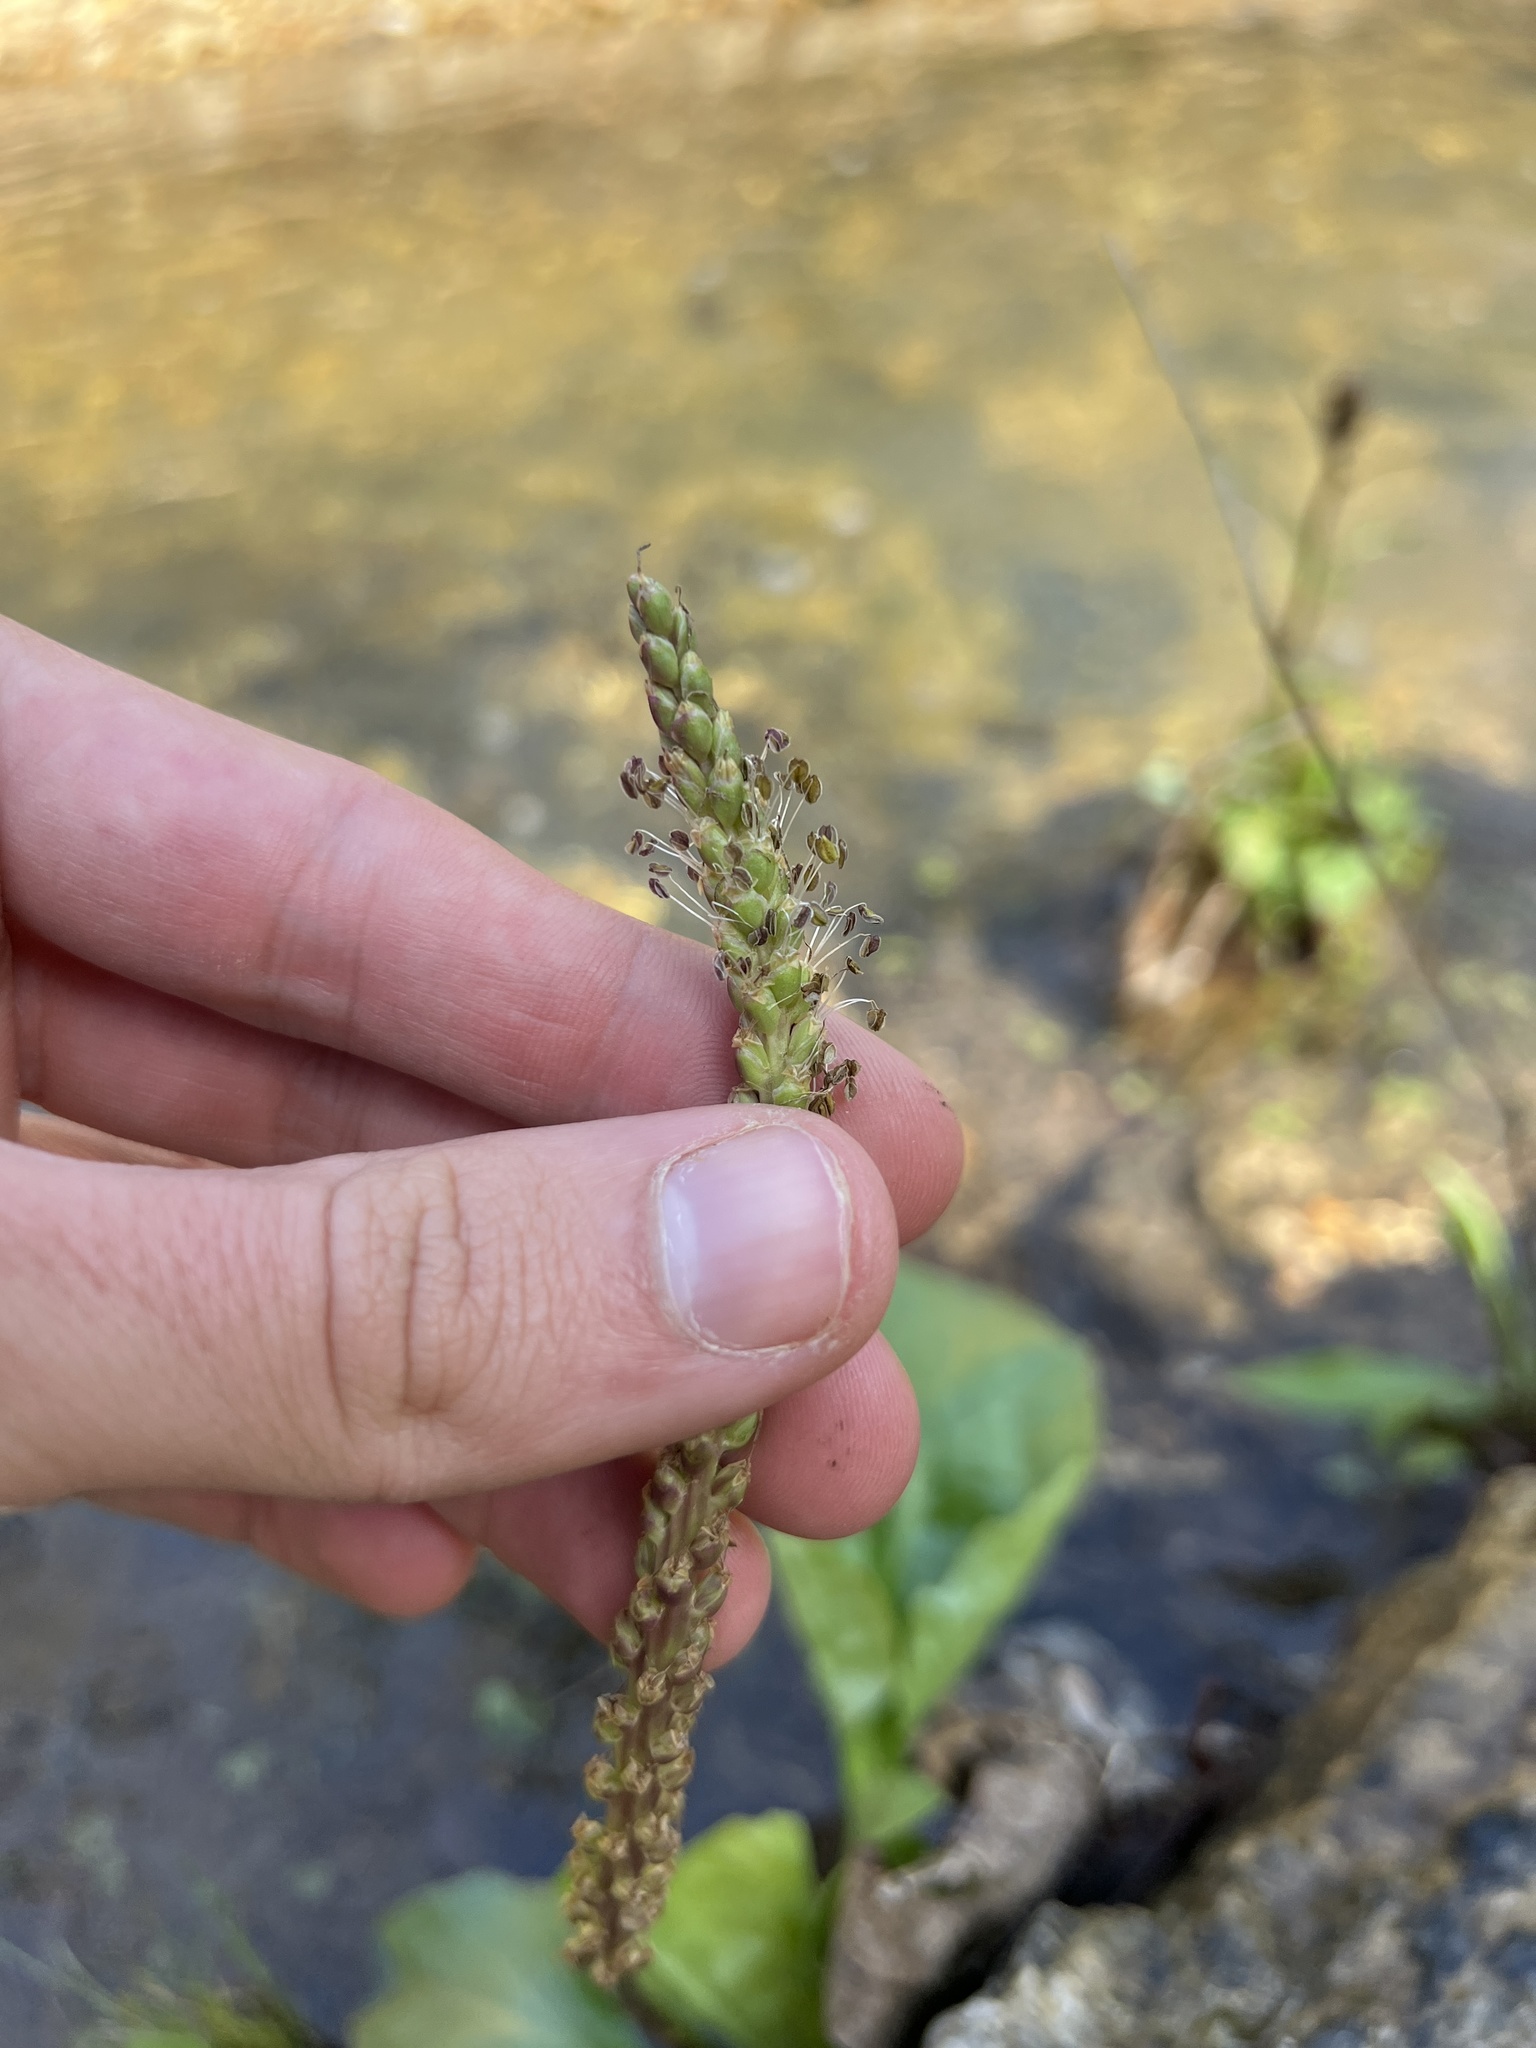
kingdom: Plantae
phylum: Tracheophyta
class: Magnoliopsida
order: Lamiales
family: Plantaginaceae
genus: Plantago
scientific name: Plantago cordata
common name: Kingroot
